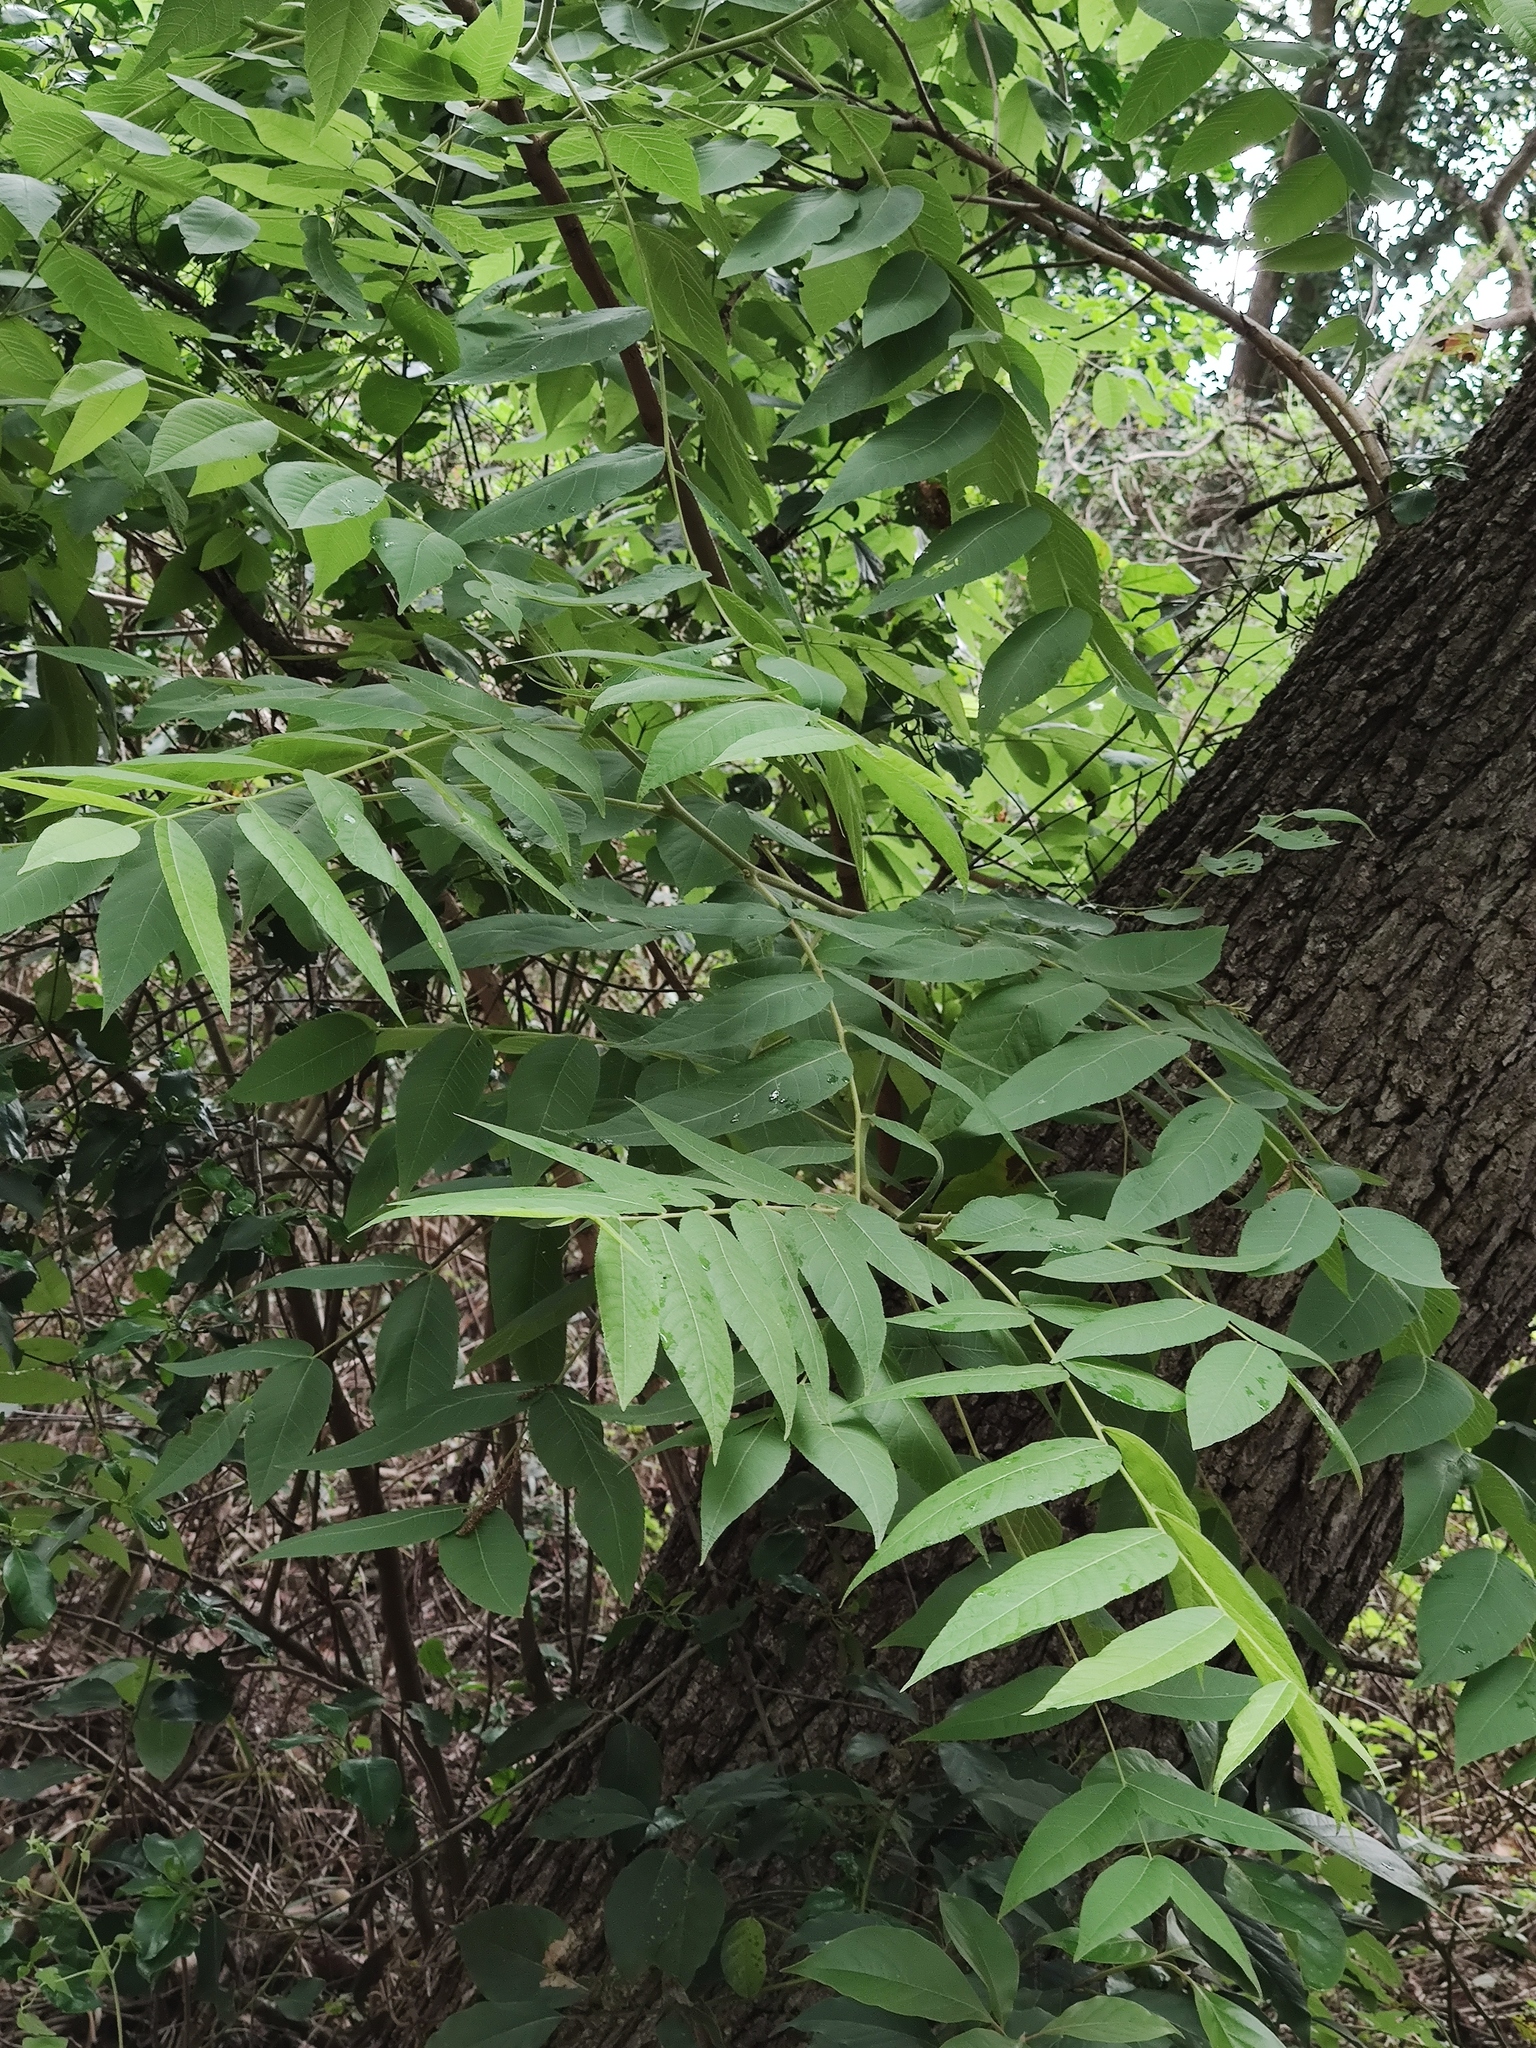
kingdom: Plantae
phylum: Tracheophyta
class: Magnoliopsida
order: Fagales
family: Juglandaceae
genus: Juglans
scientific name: Juglans mollis
